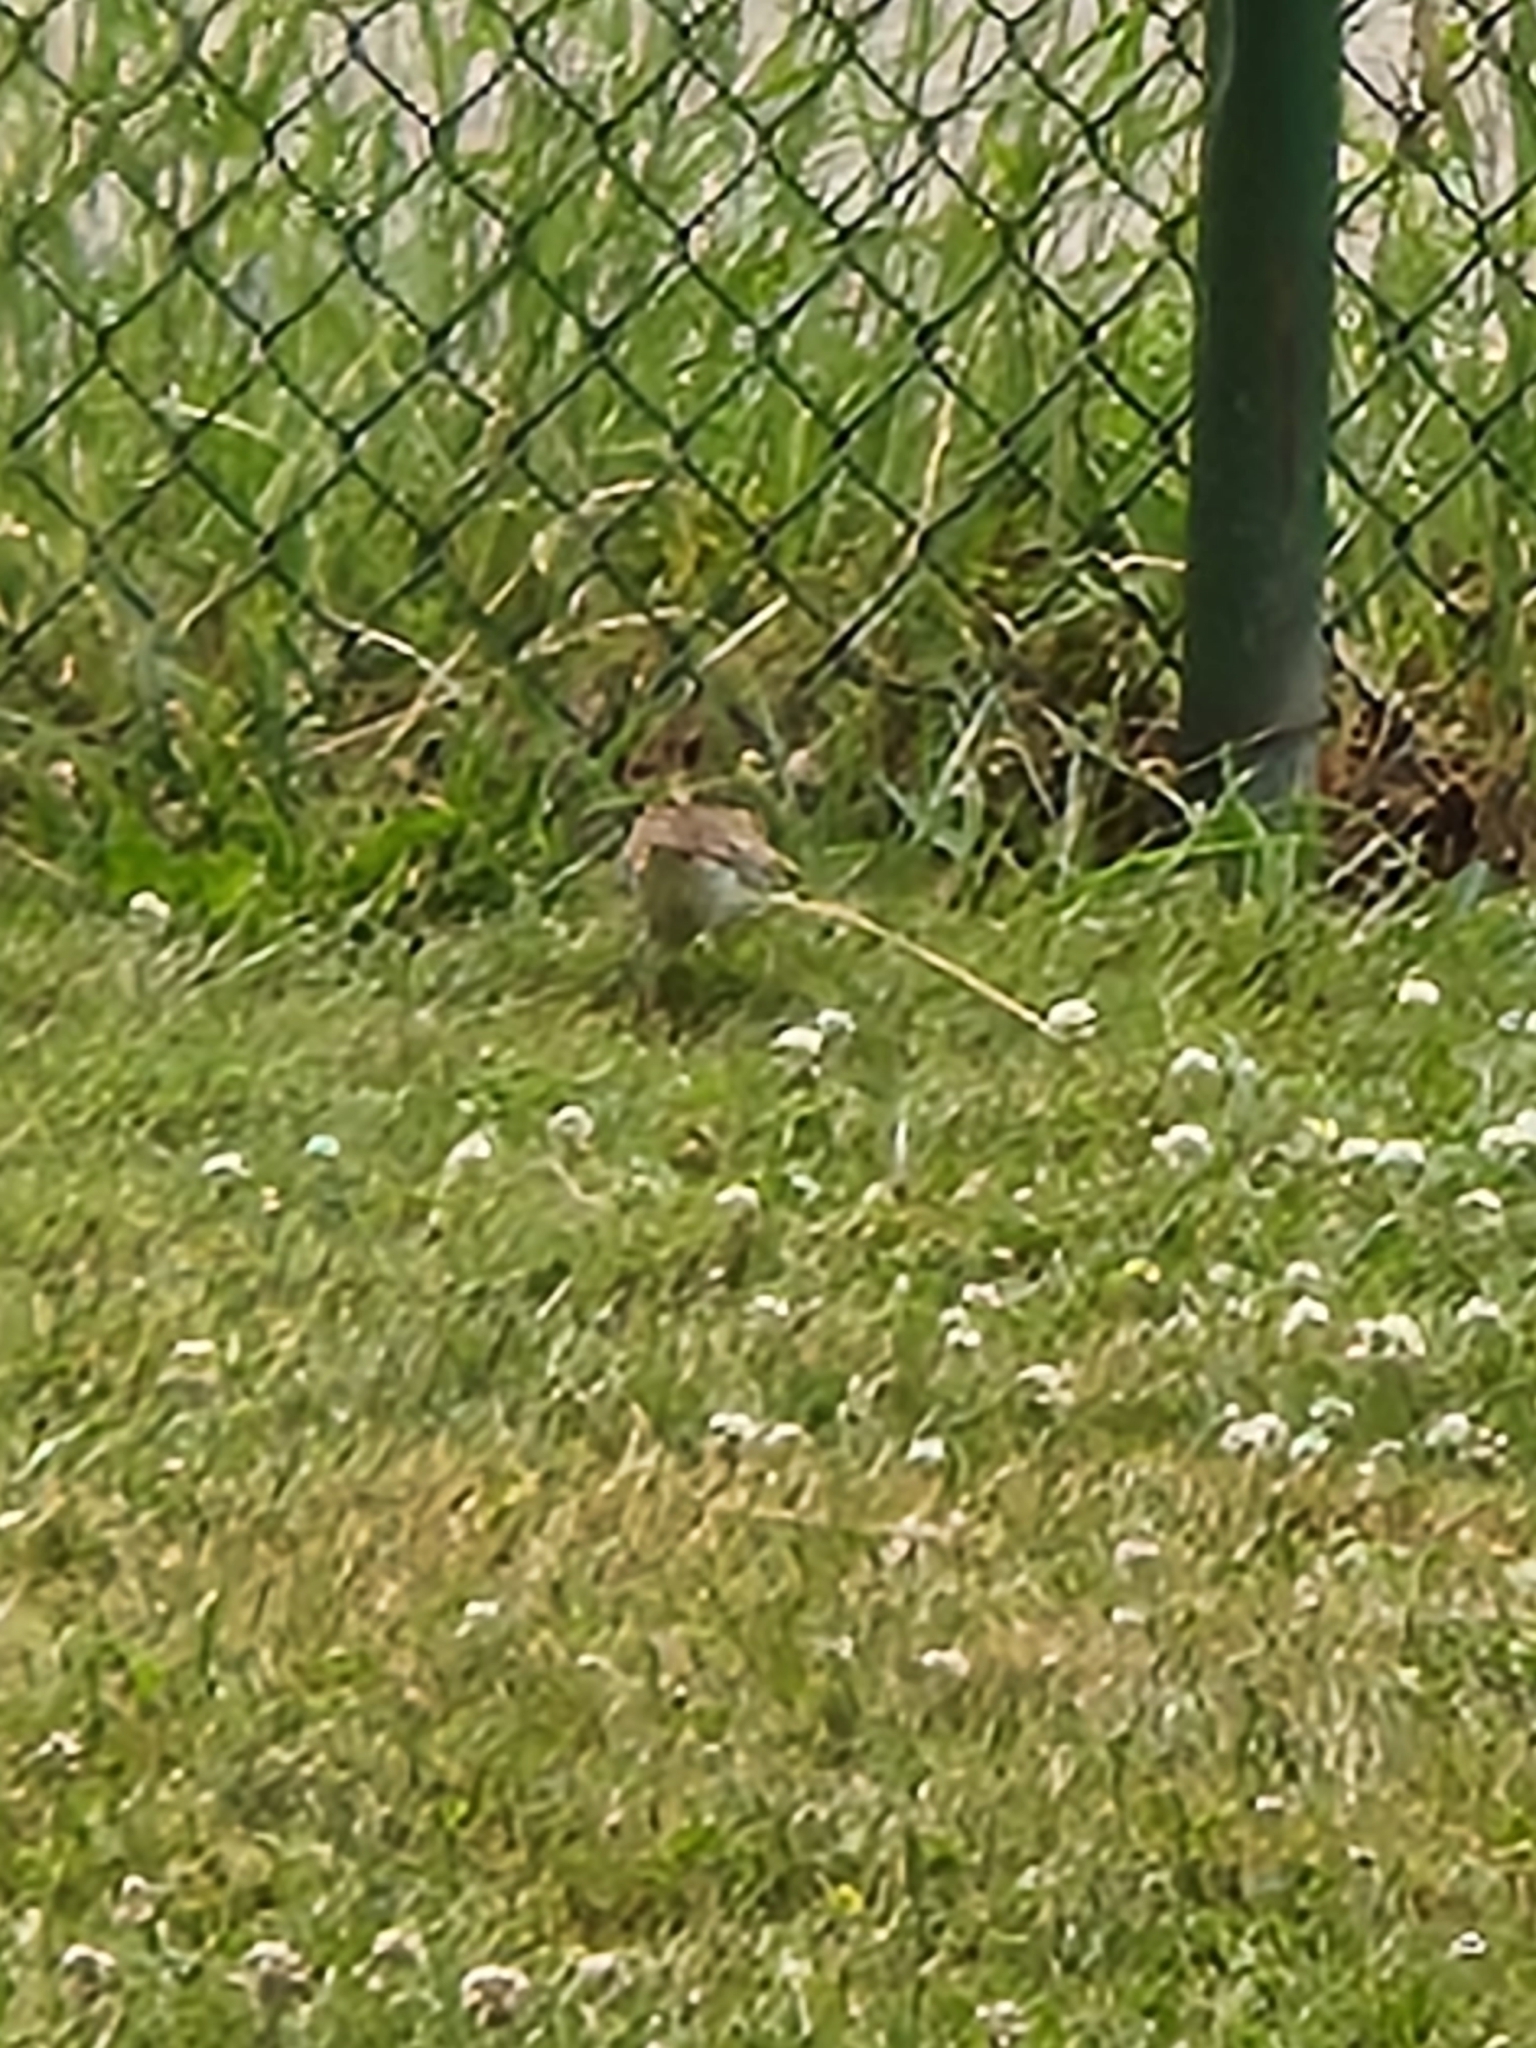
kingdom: Animalia
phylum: Chordata
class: Aves
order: Charadriiformes
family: Charadriidae
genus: Charadrius
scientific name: Charadrius vociferus
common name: Killdeer
